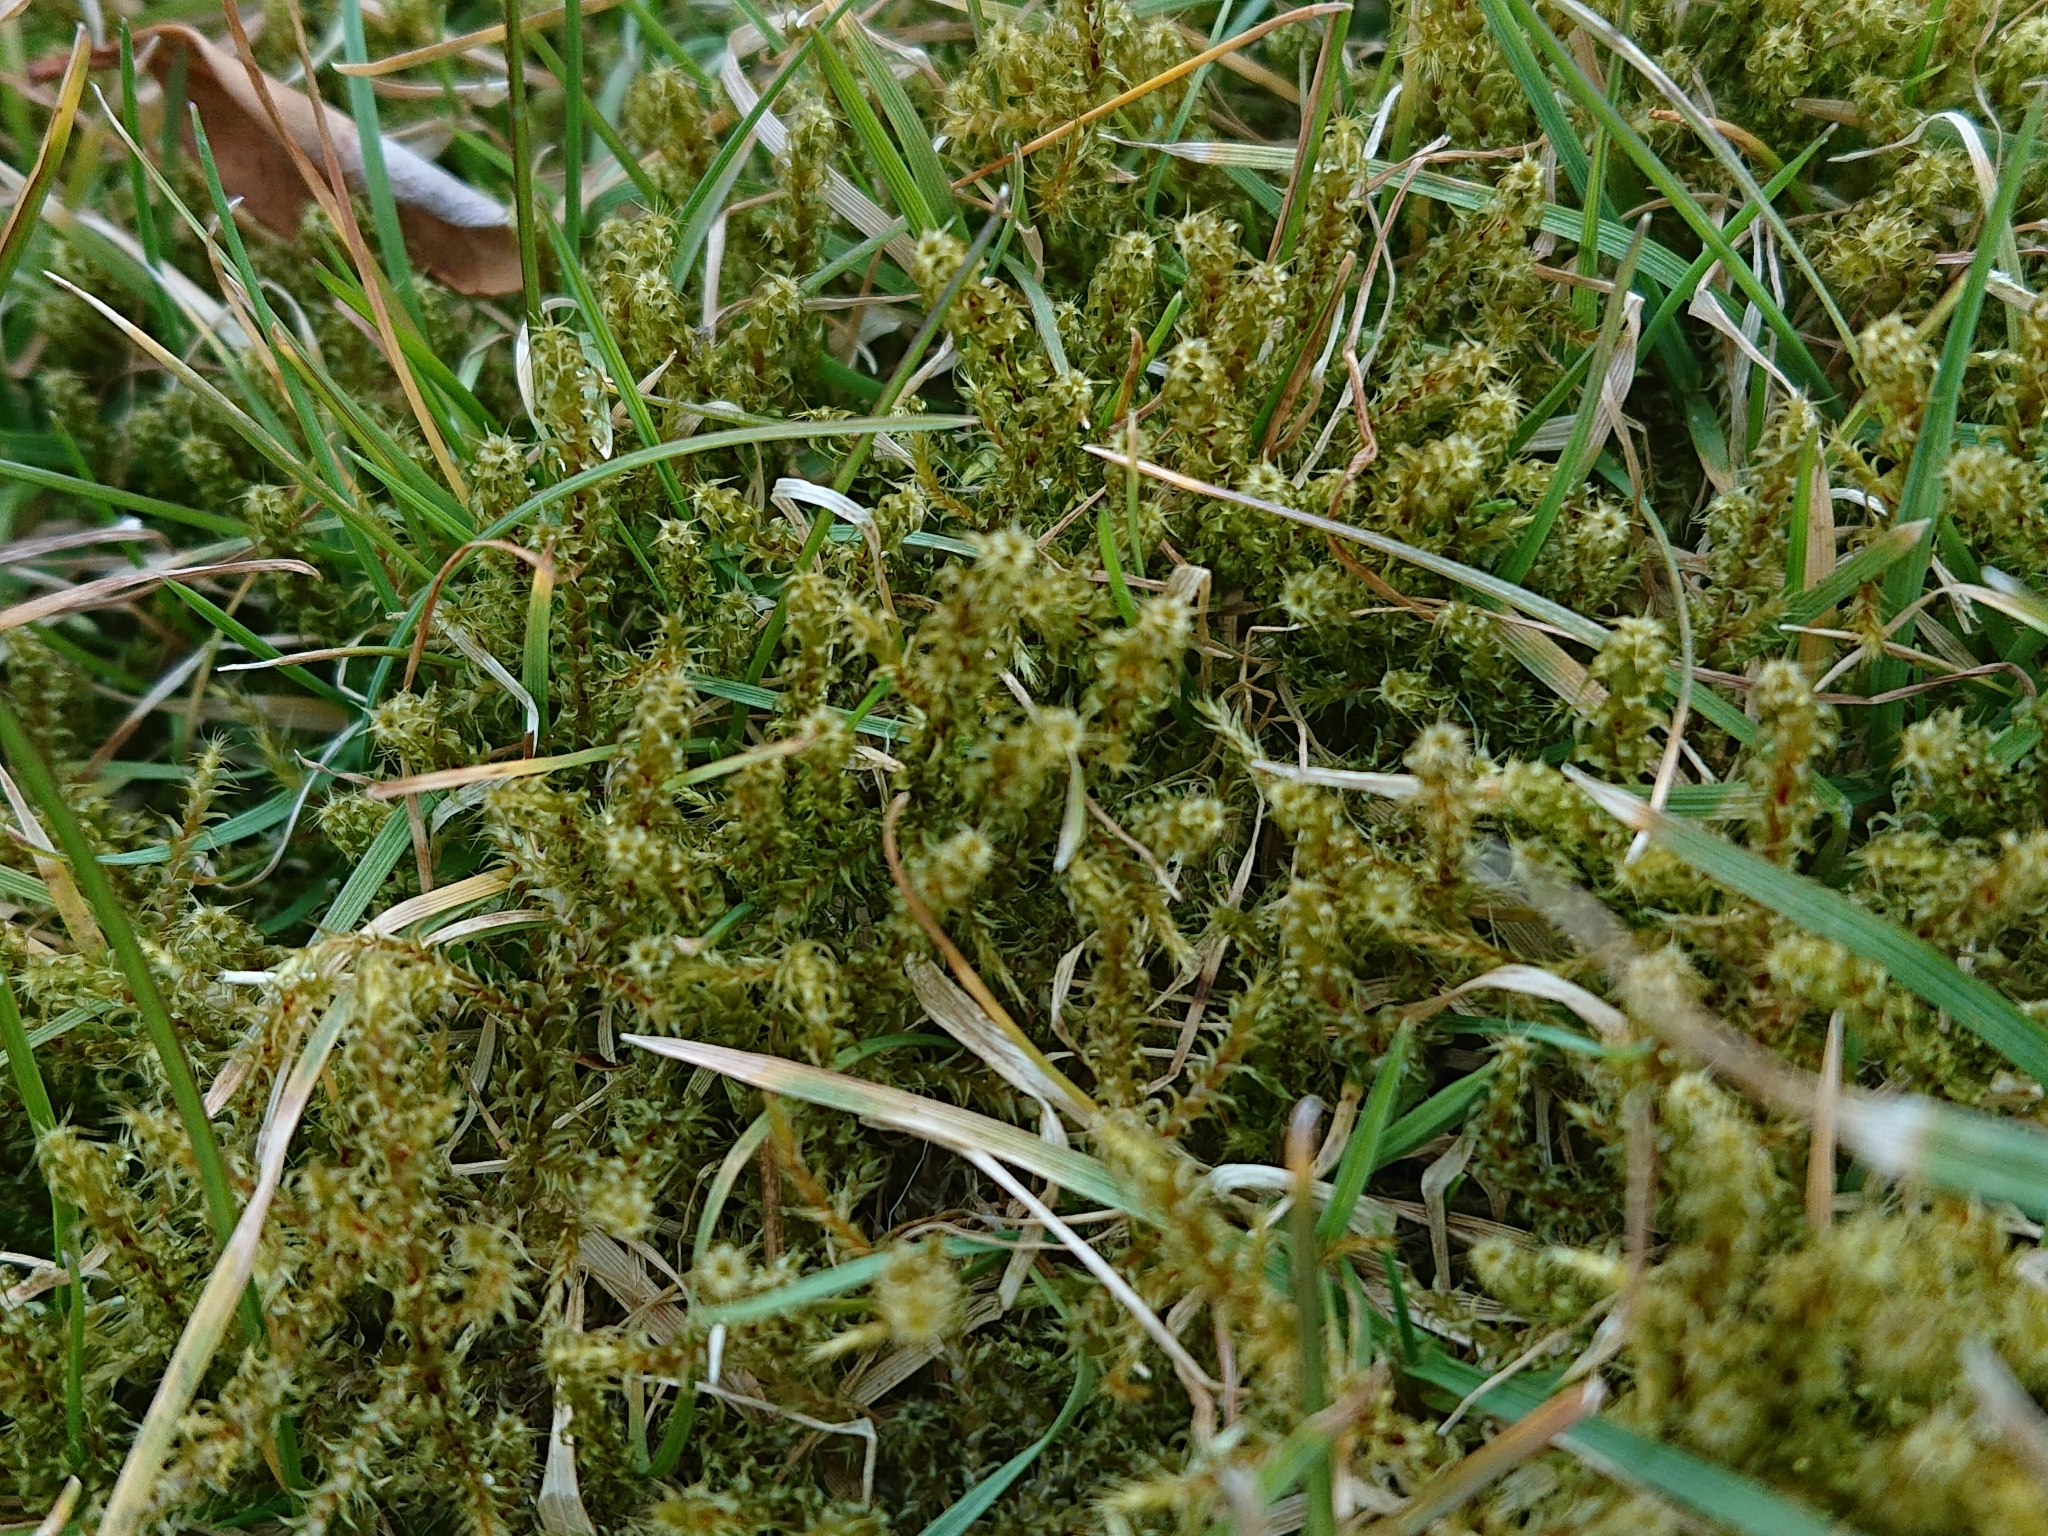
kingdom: Plantae
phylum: Bryophyta
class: Bryopsida
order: Hypnales
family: Hylocomiaceae
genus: Rhytidiadelphus
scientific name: Rhytidiadelphus squarrosus
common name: Springy turf-moss
